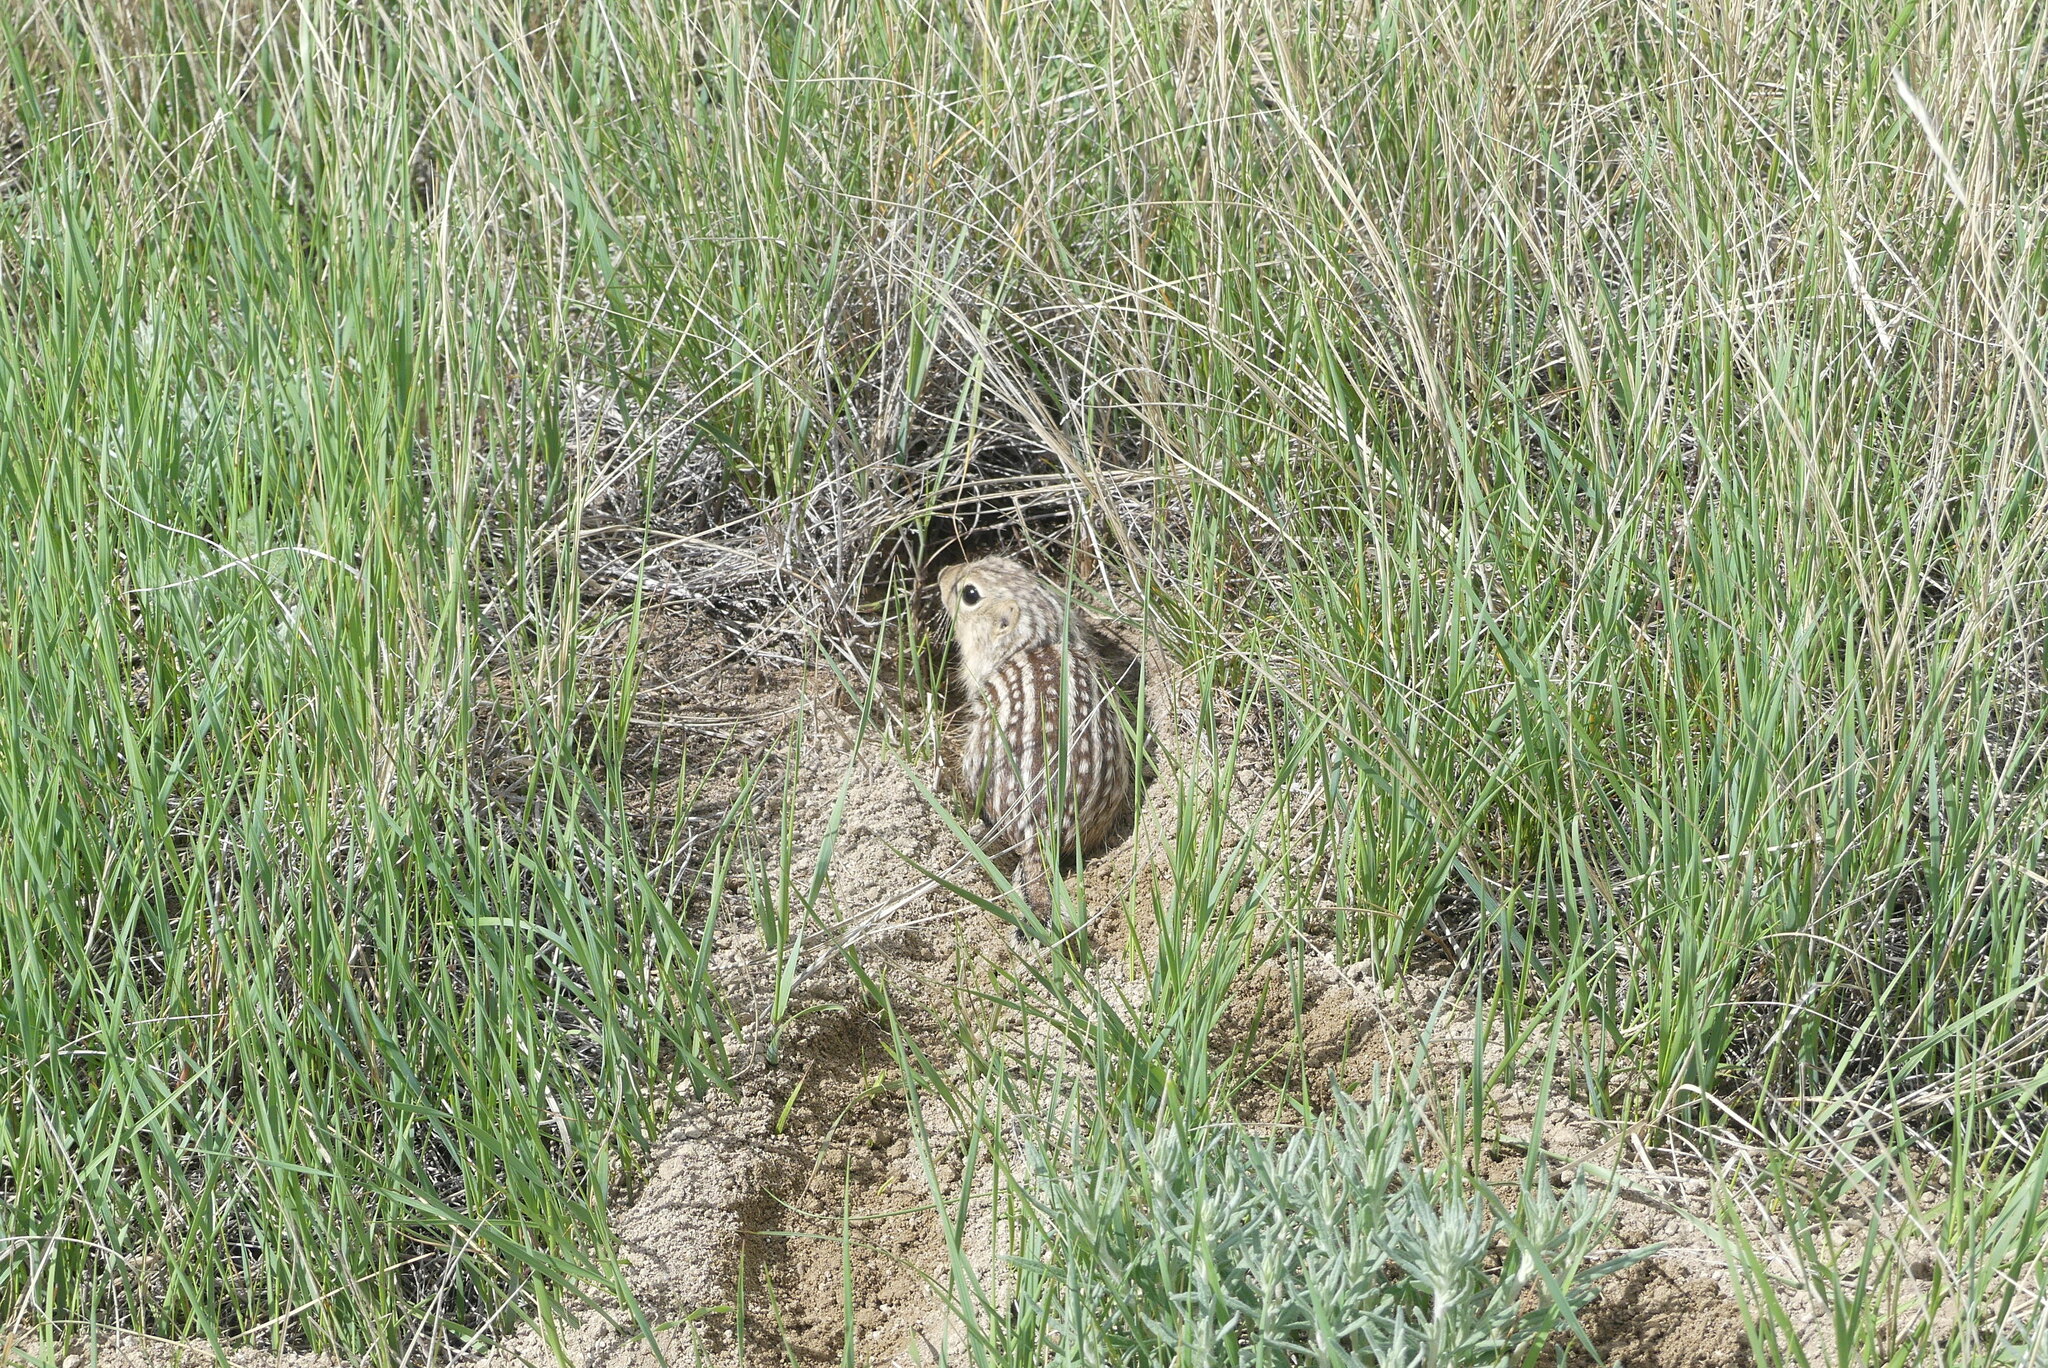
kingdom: Animalia
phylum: Chordata
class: Mammalia
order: Rodentia
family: Sciuridae
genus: Ictidomys
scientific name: Ictidomys tridecemlineatus
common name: Thirteen-lined ground squirrel
